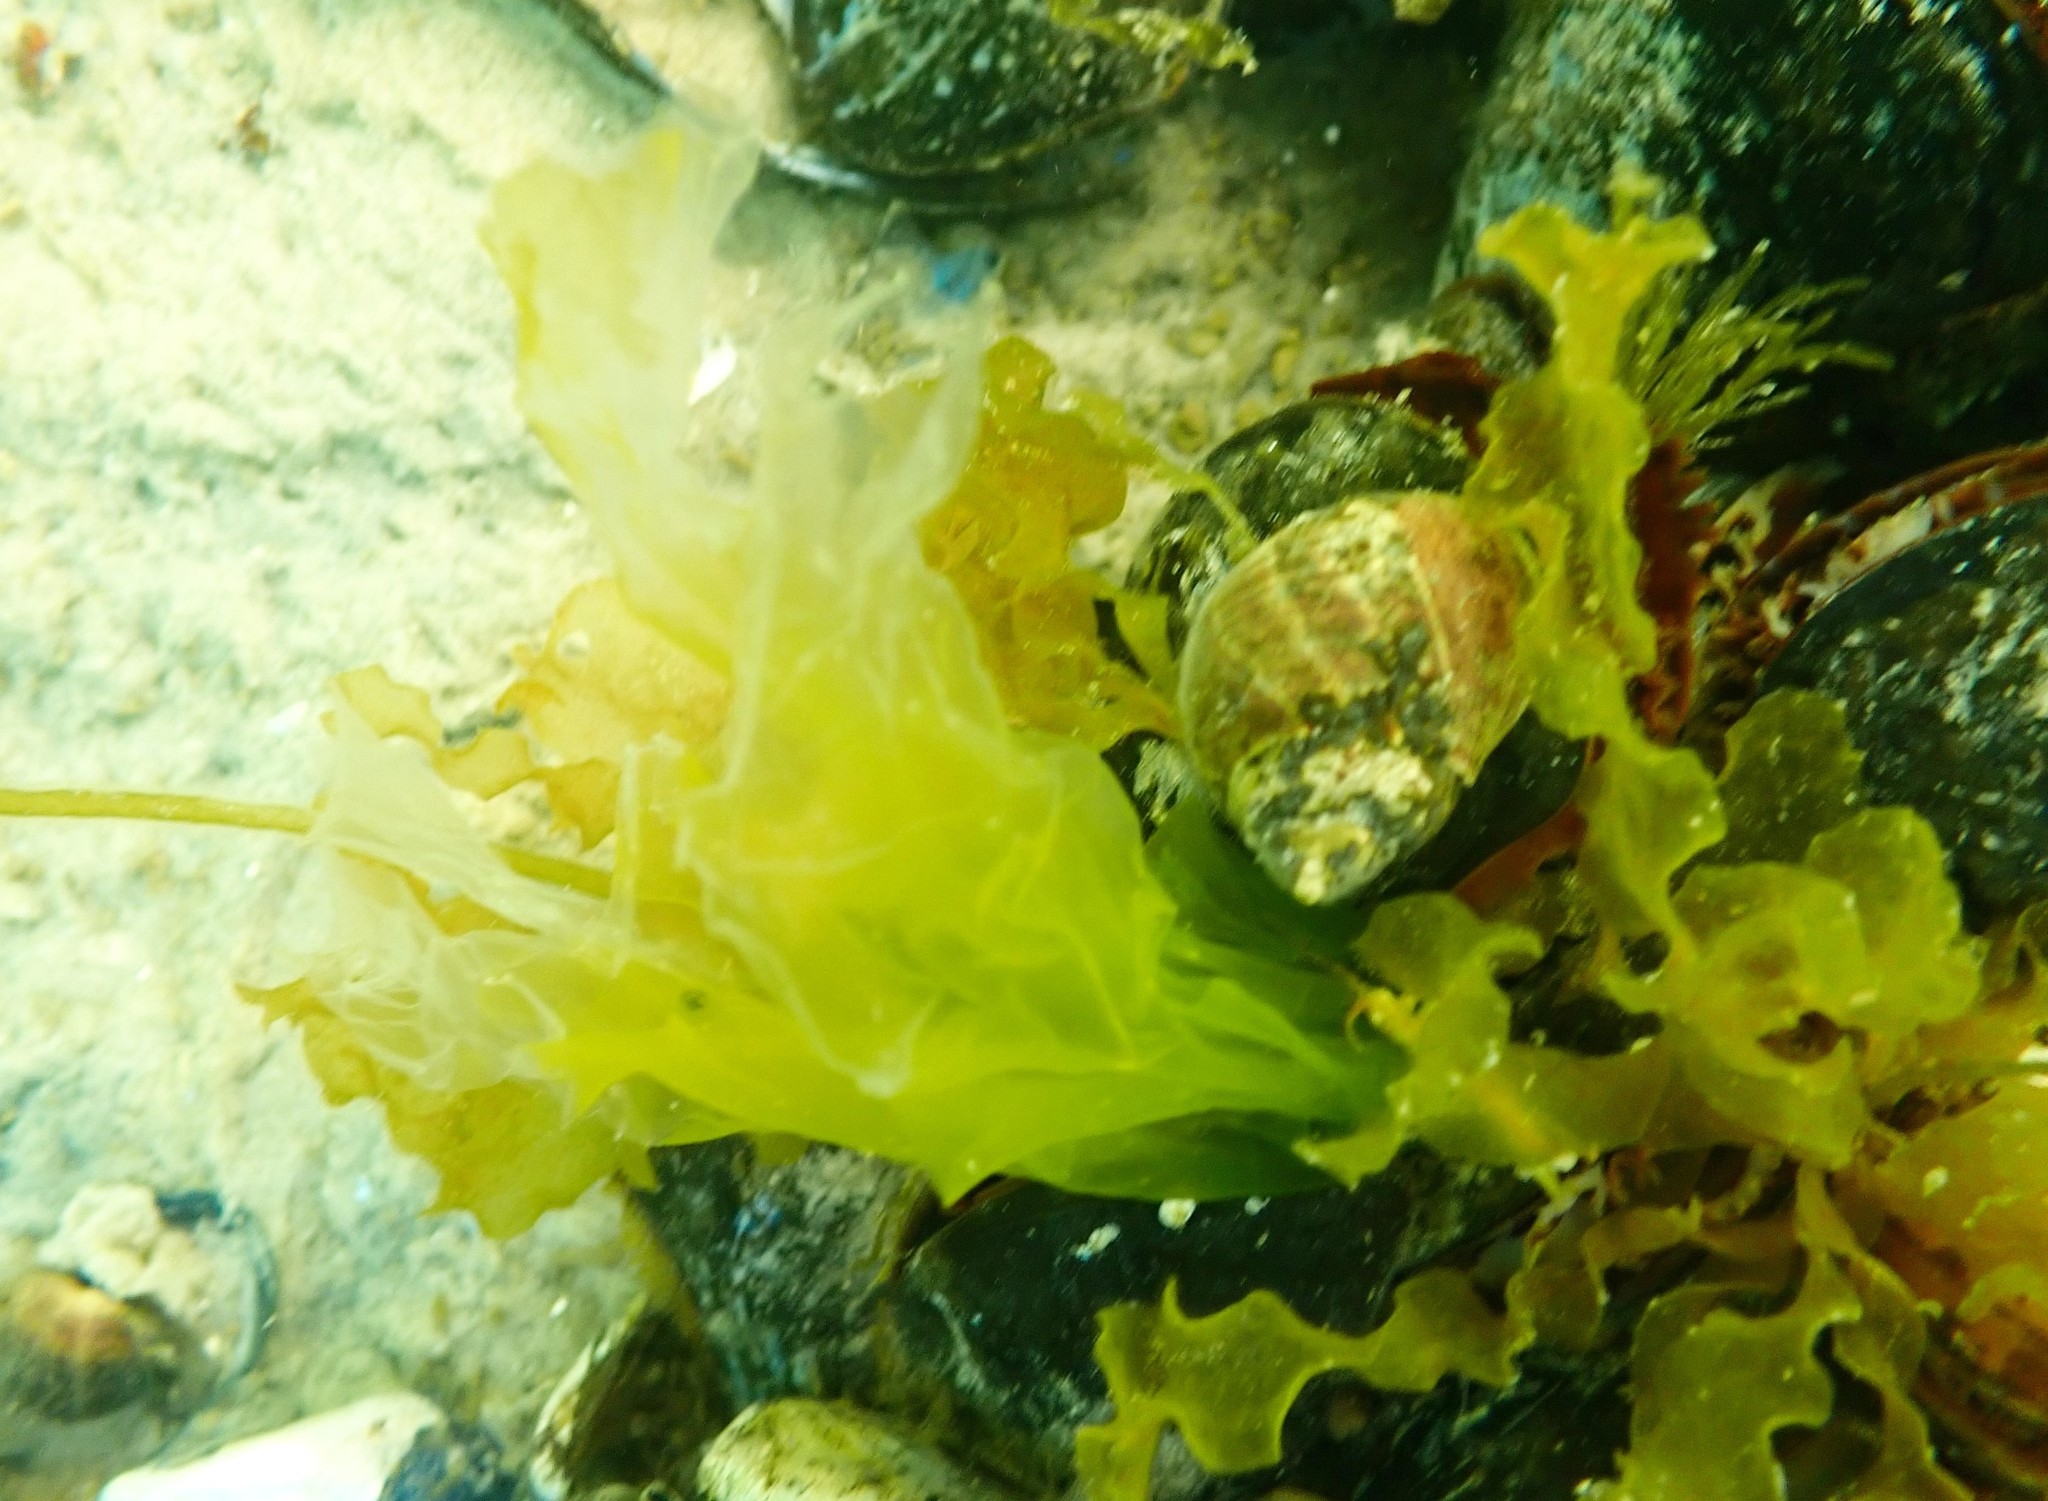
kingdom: Animalia
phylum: Mollusca
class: Gastropoda
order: Littorinimorpha
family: Littorinidae
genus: Littorina
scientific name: Littorina littorea
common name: Common periwinkle
